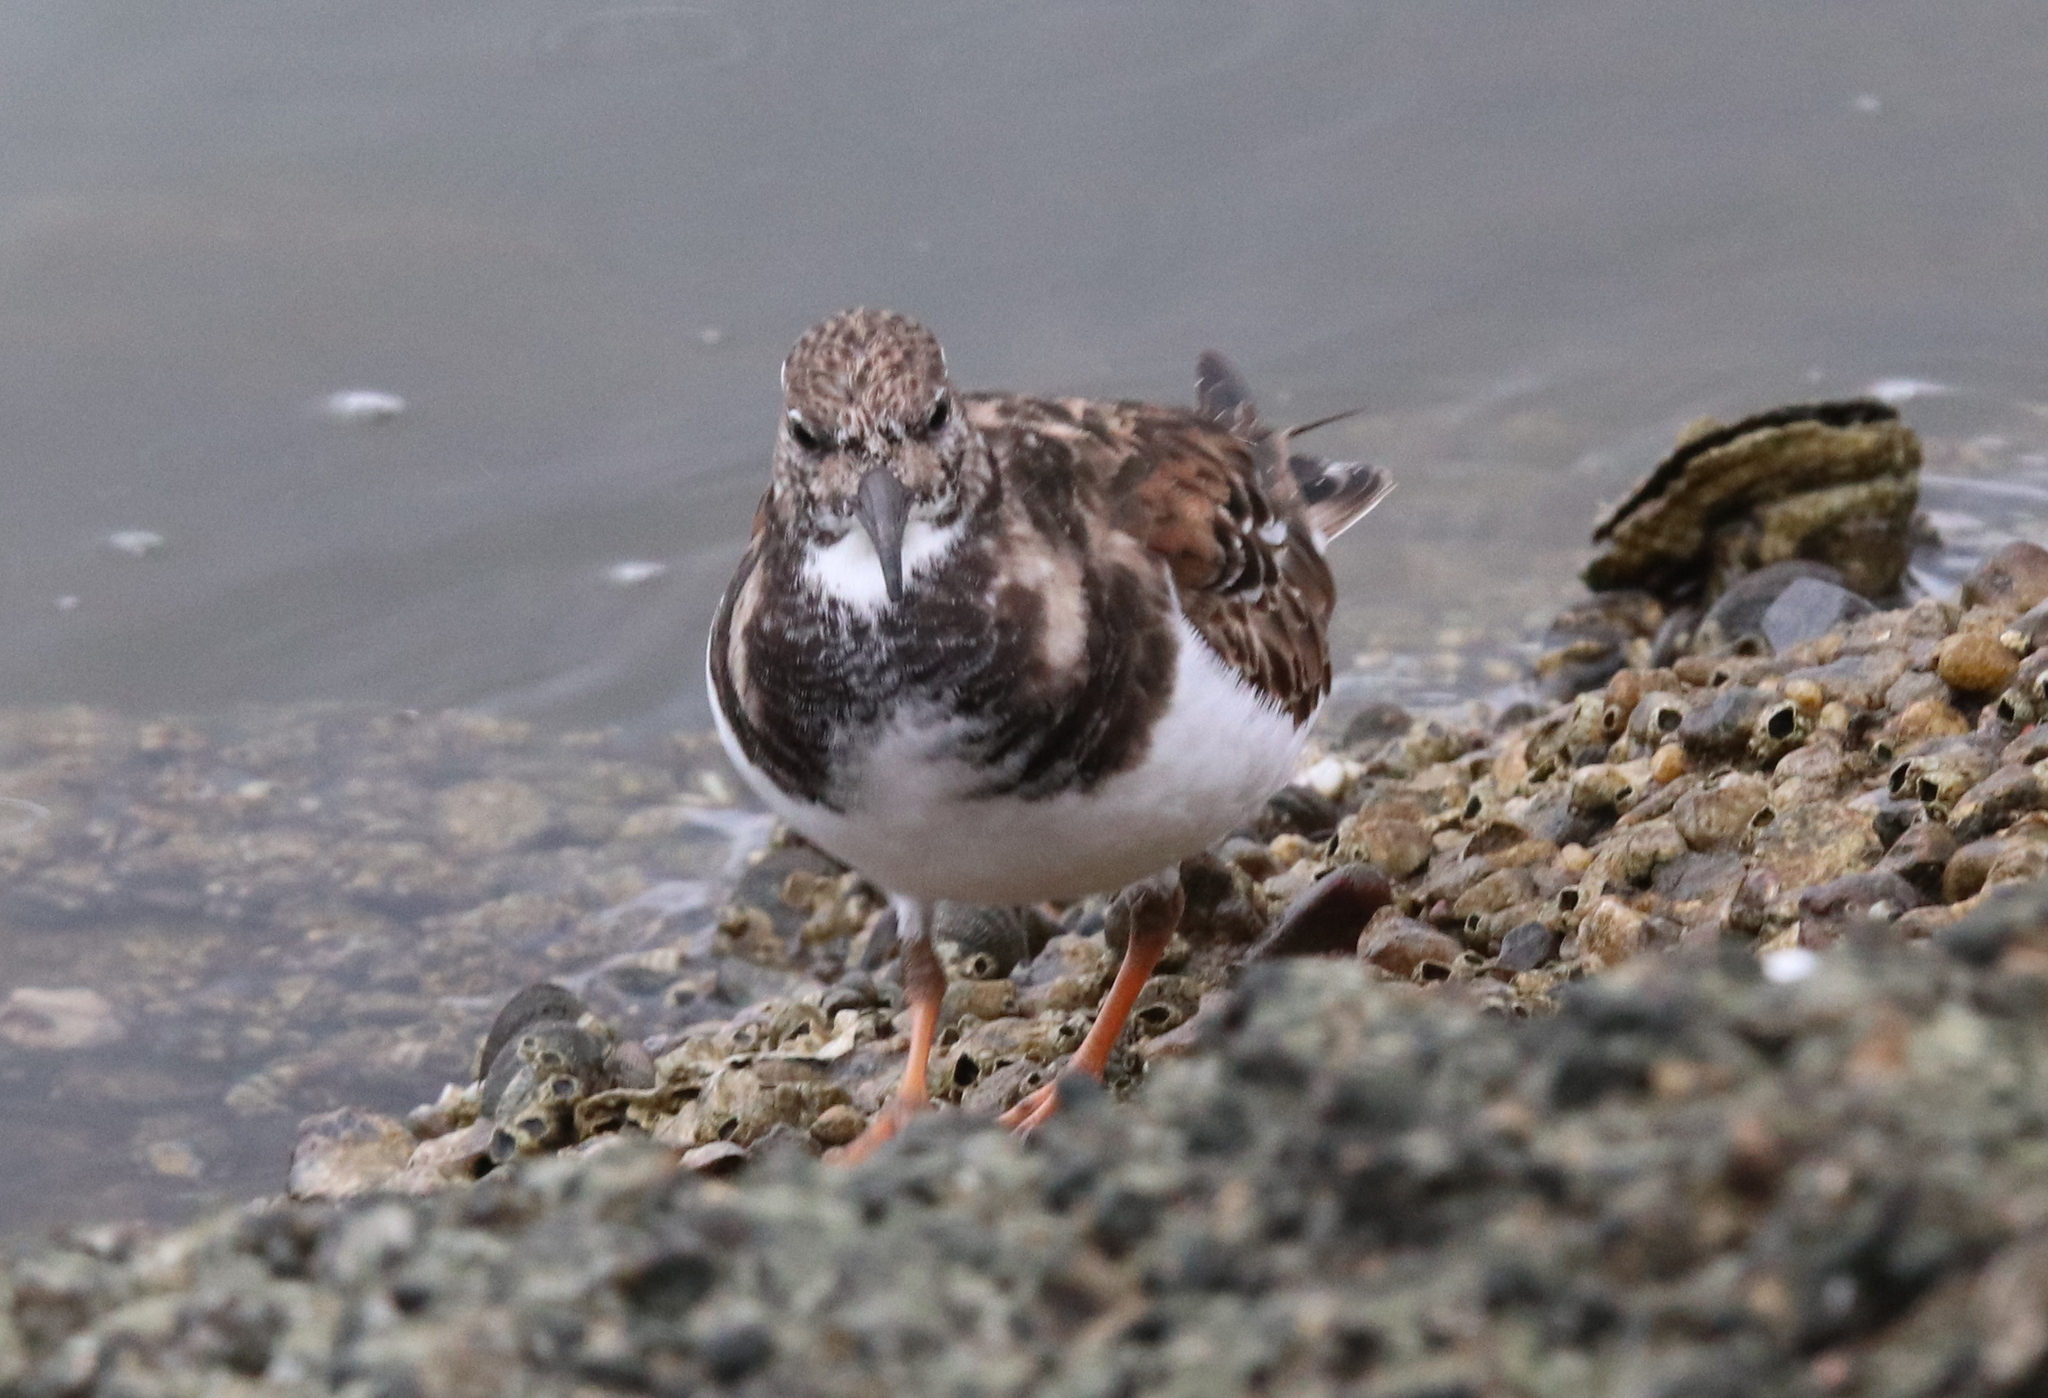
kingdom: Animalia
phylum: Chordata
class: Aves
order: Charadriiformes
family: Scolopacidae
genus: Arenaria
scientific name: Arenaria interpres
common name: Ruddy turnstone
